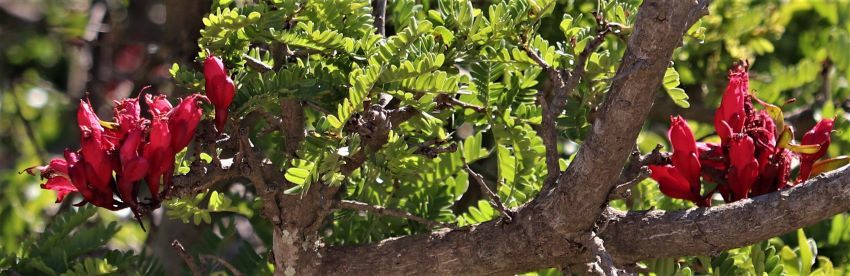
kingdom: Plantae
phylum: Tracheophyta
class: Magnoliopsida
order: Fabales
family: Fabaceae
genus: Schotia
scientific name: Schotia afra
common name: Hottentot's bean
